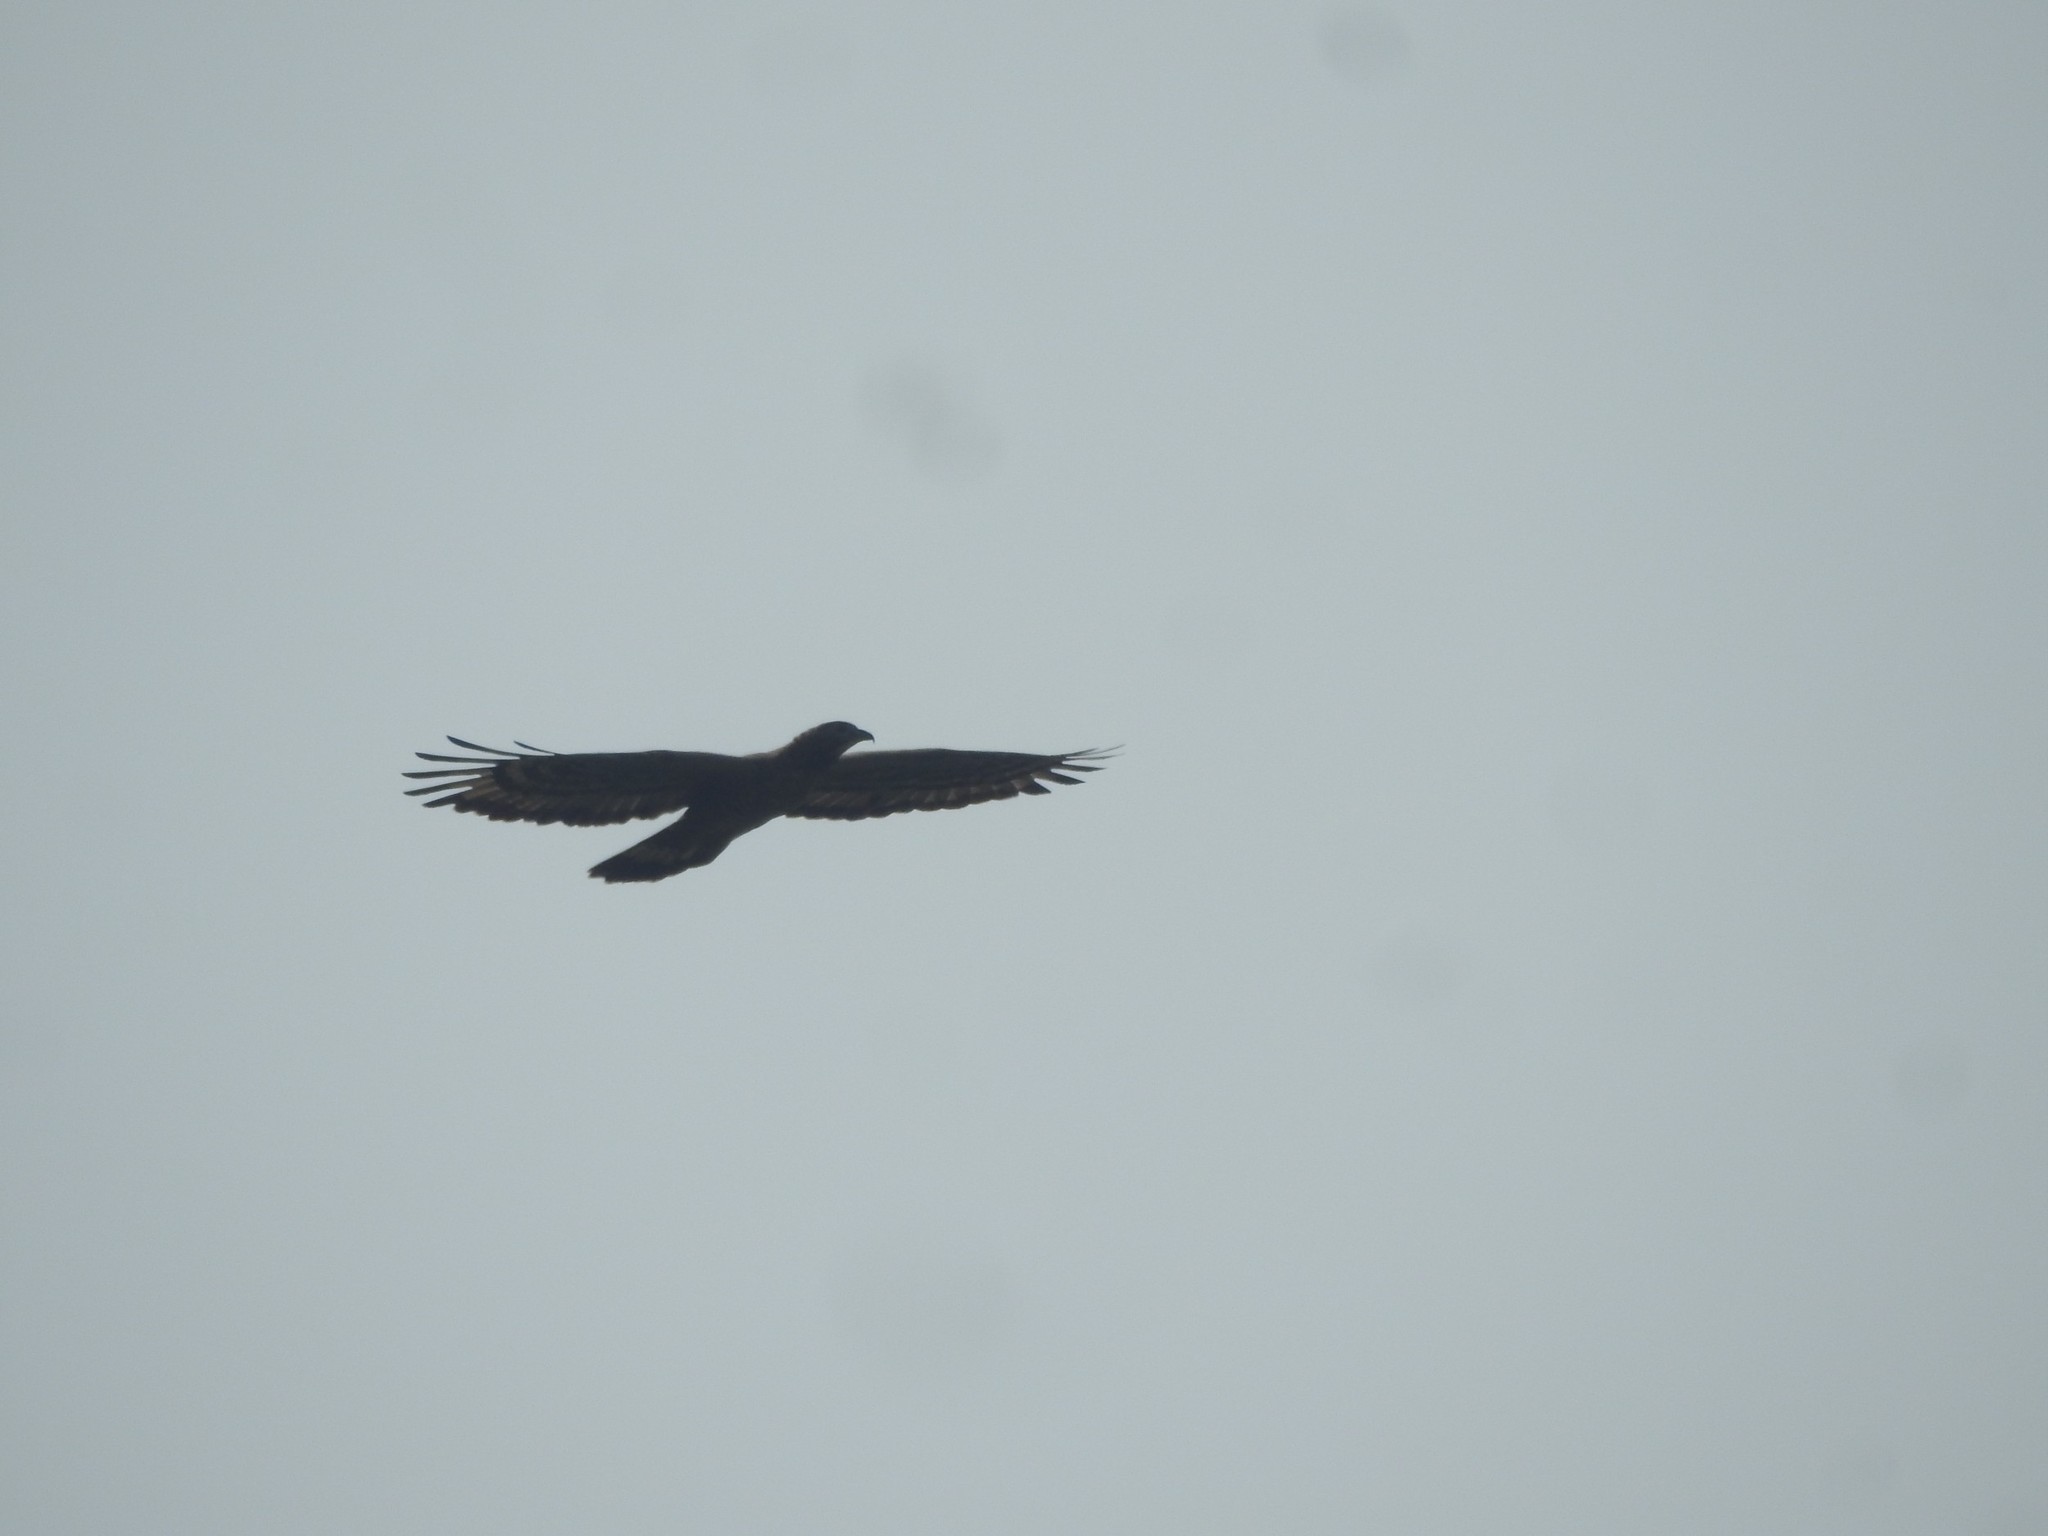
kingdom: Animalia
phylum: Chordata
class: Aves
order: Accipitriformes
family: Accipitridae
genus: Pernis
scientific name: Pernis ptilorhynchus
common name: Crested honey buzzard
